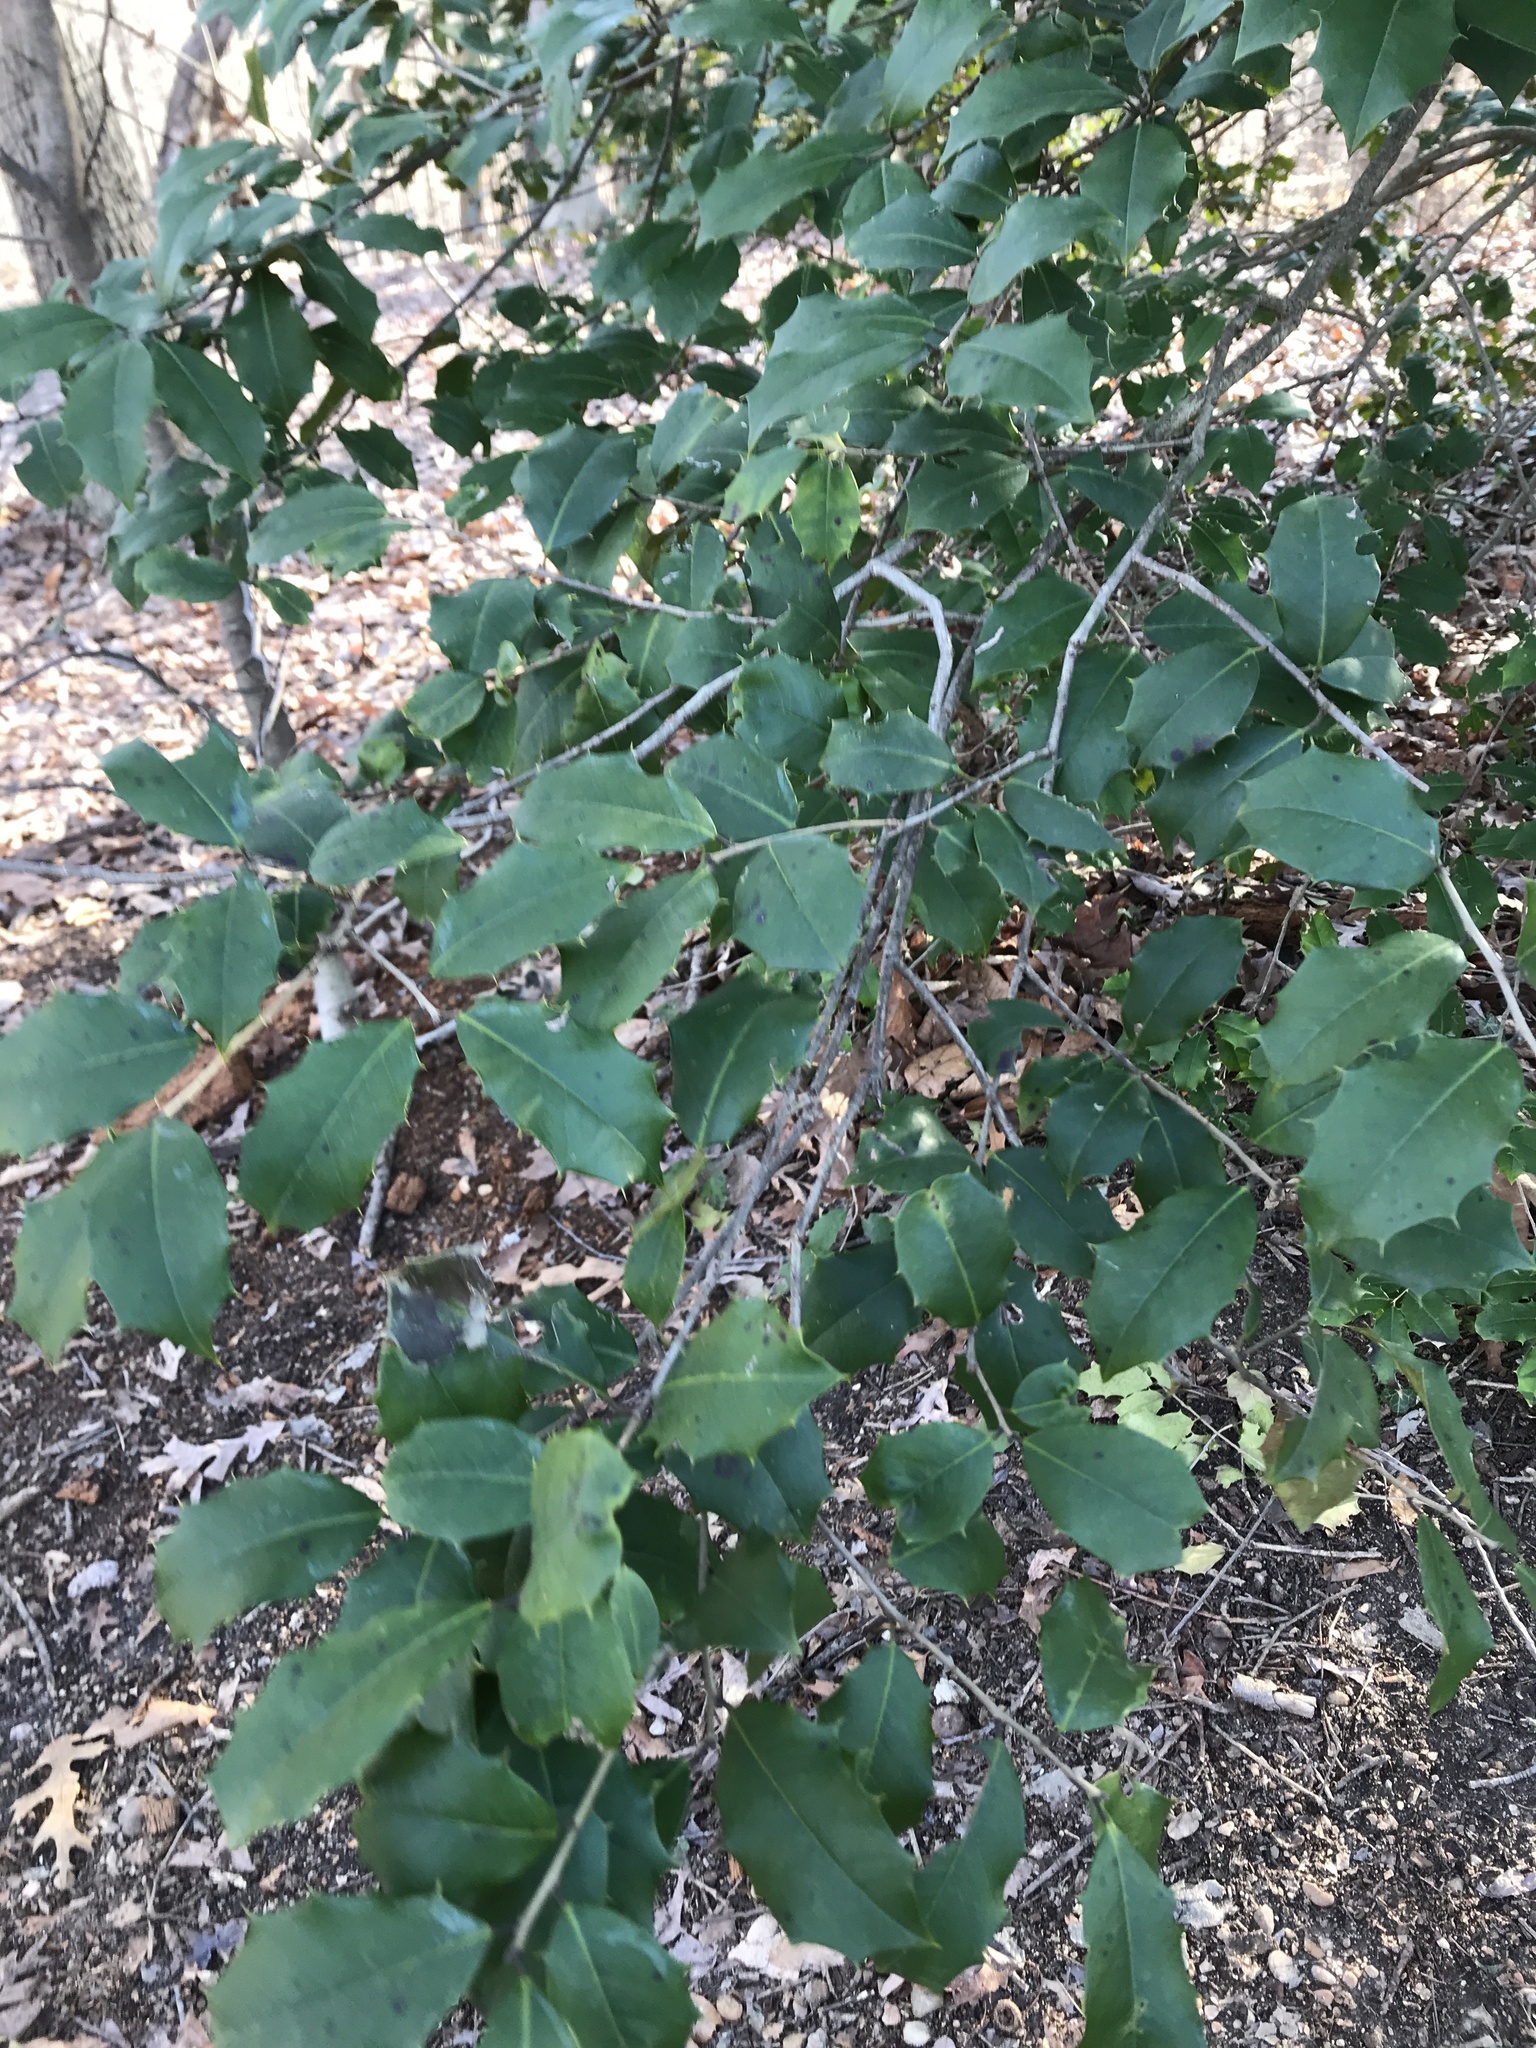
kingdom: Plantae
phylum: Tracheophyta
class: Magnoliopsida
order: Aquifoliales
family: Aquifoliaceae
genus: Ilex
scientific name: Ilex opaca
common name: American holly
